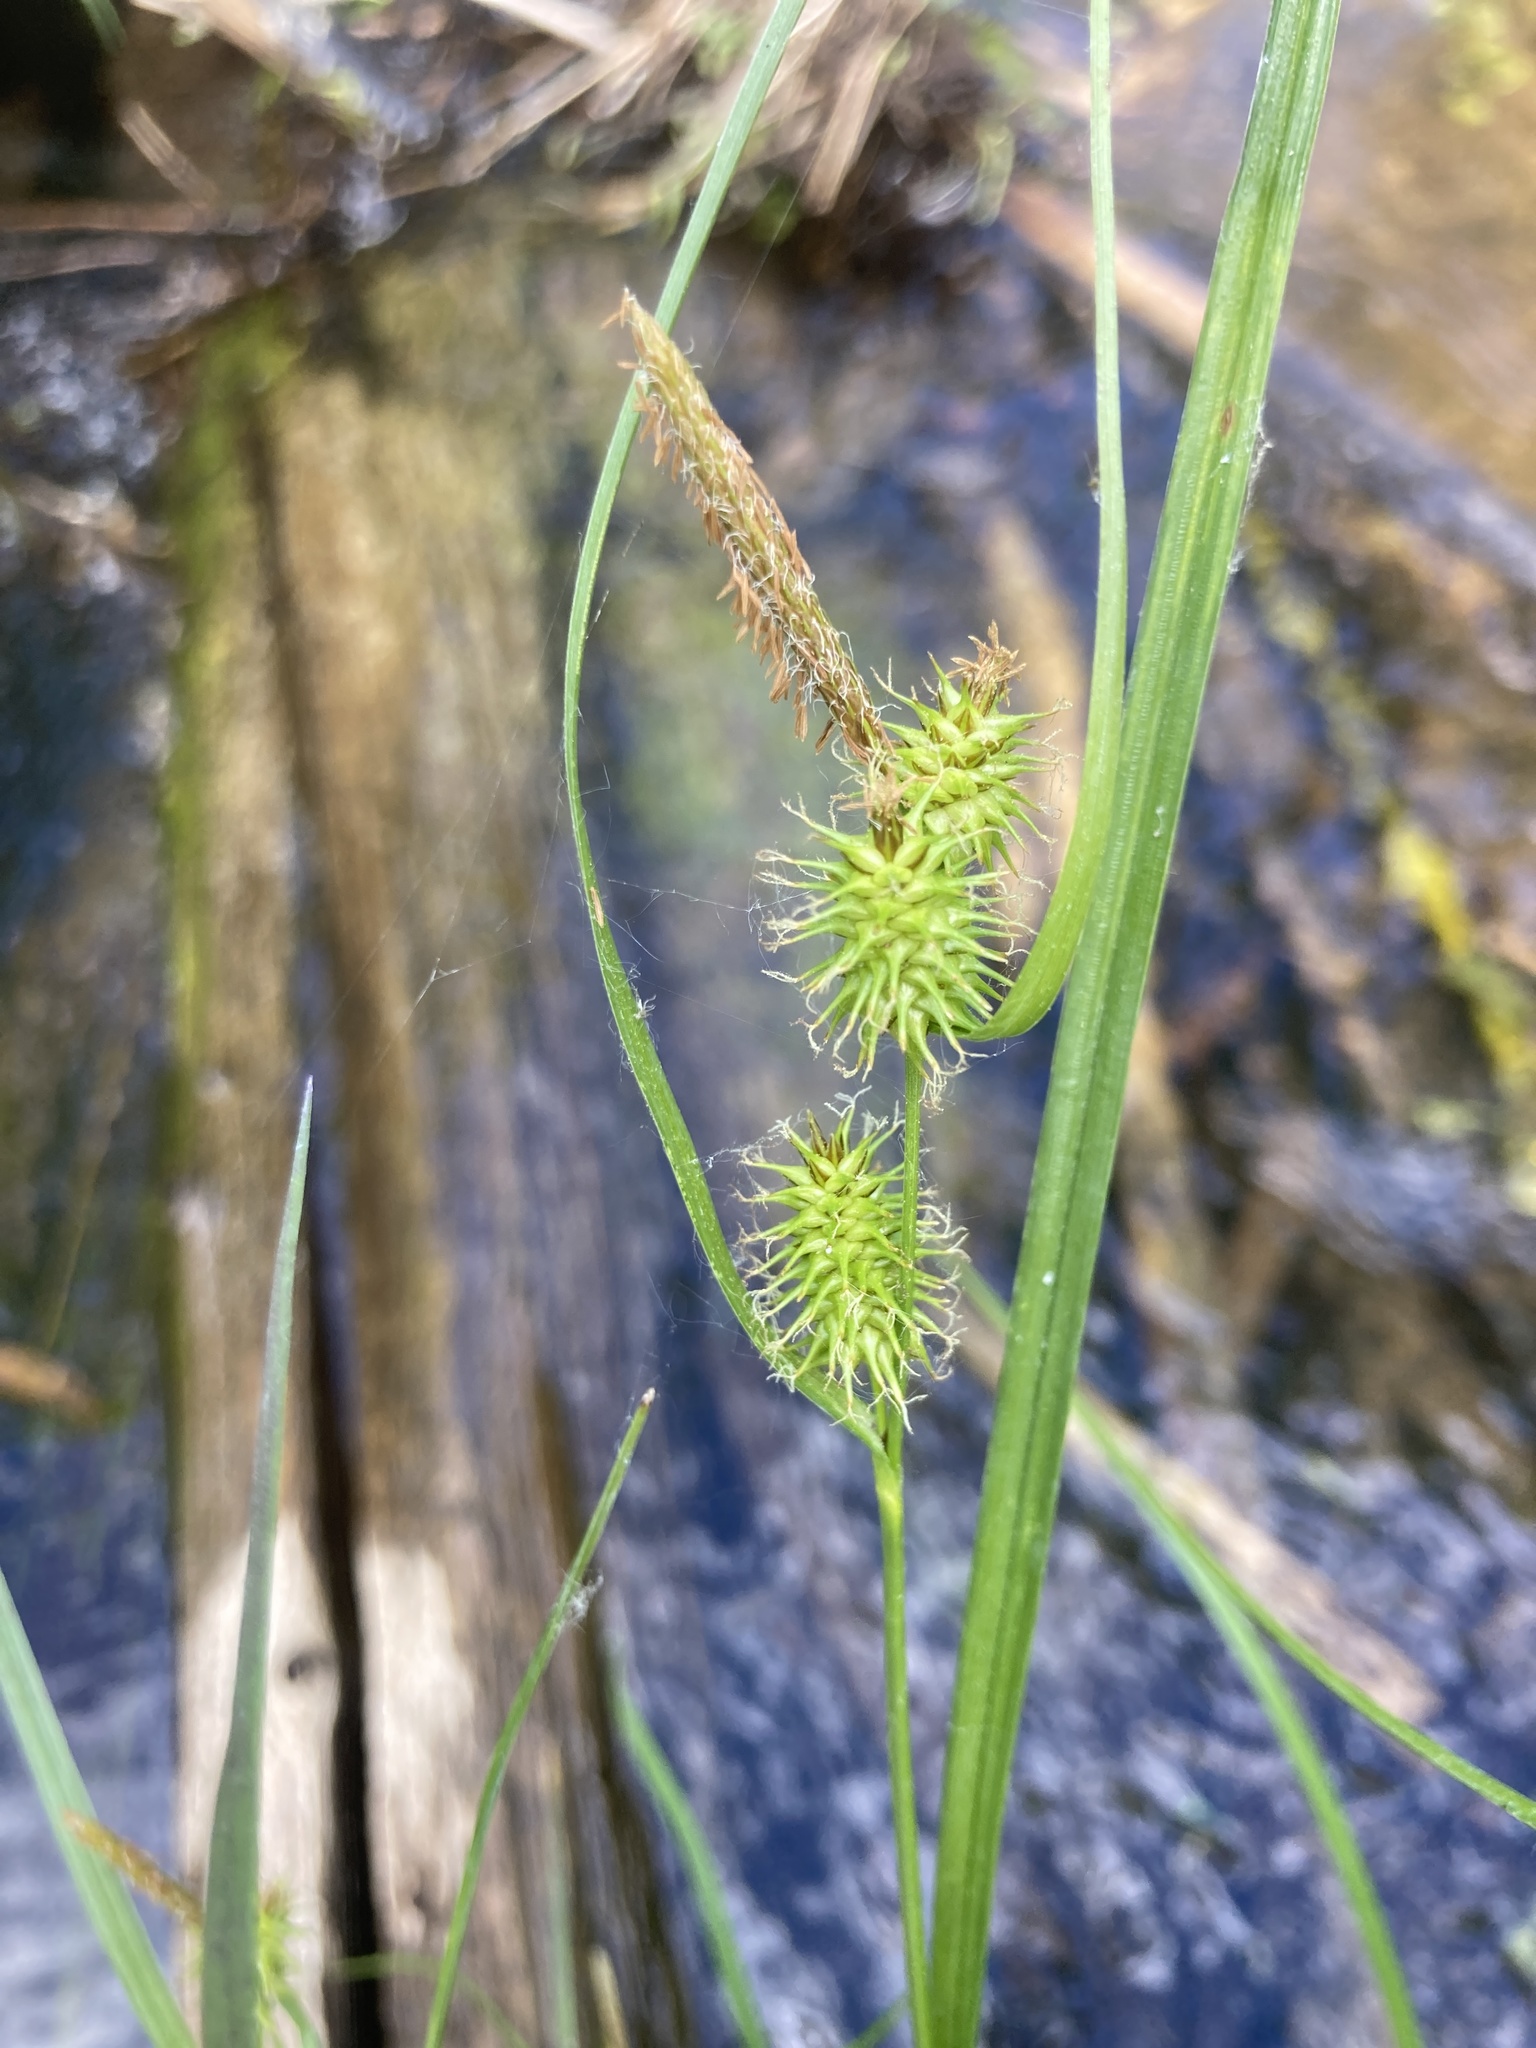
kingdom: Plantae
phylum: Tracheophyta
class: Liliopsida
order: Poales
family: Cyperaceae
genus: Carex
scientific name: Carex flava
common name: Large yellow-sedge
